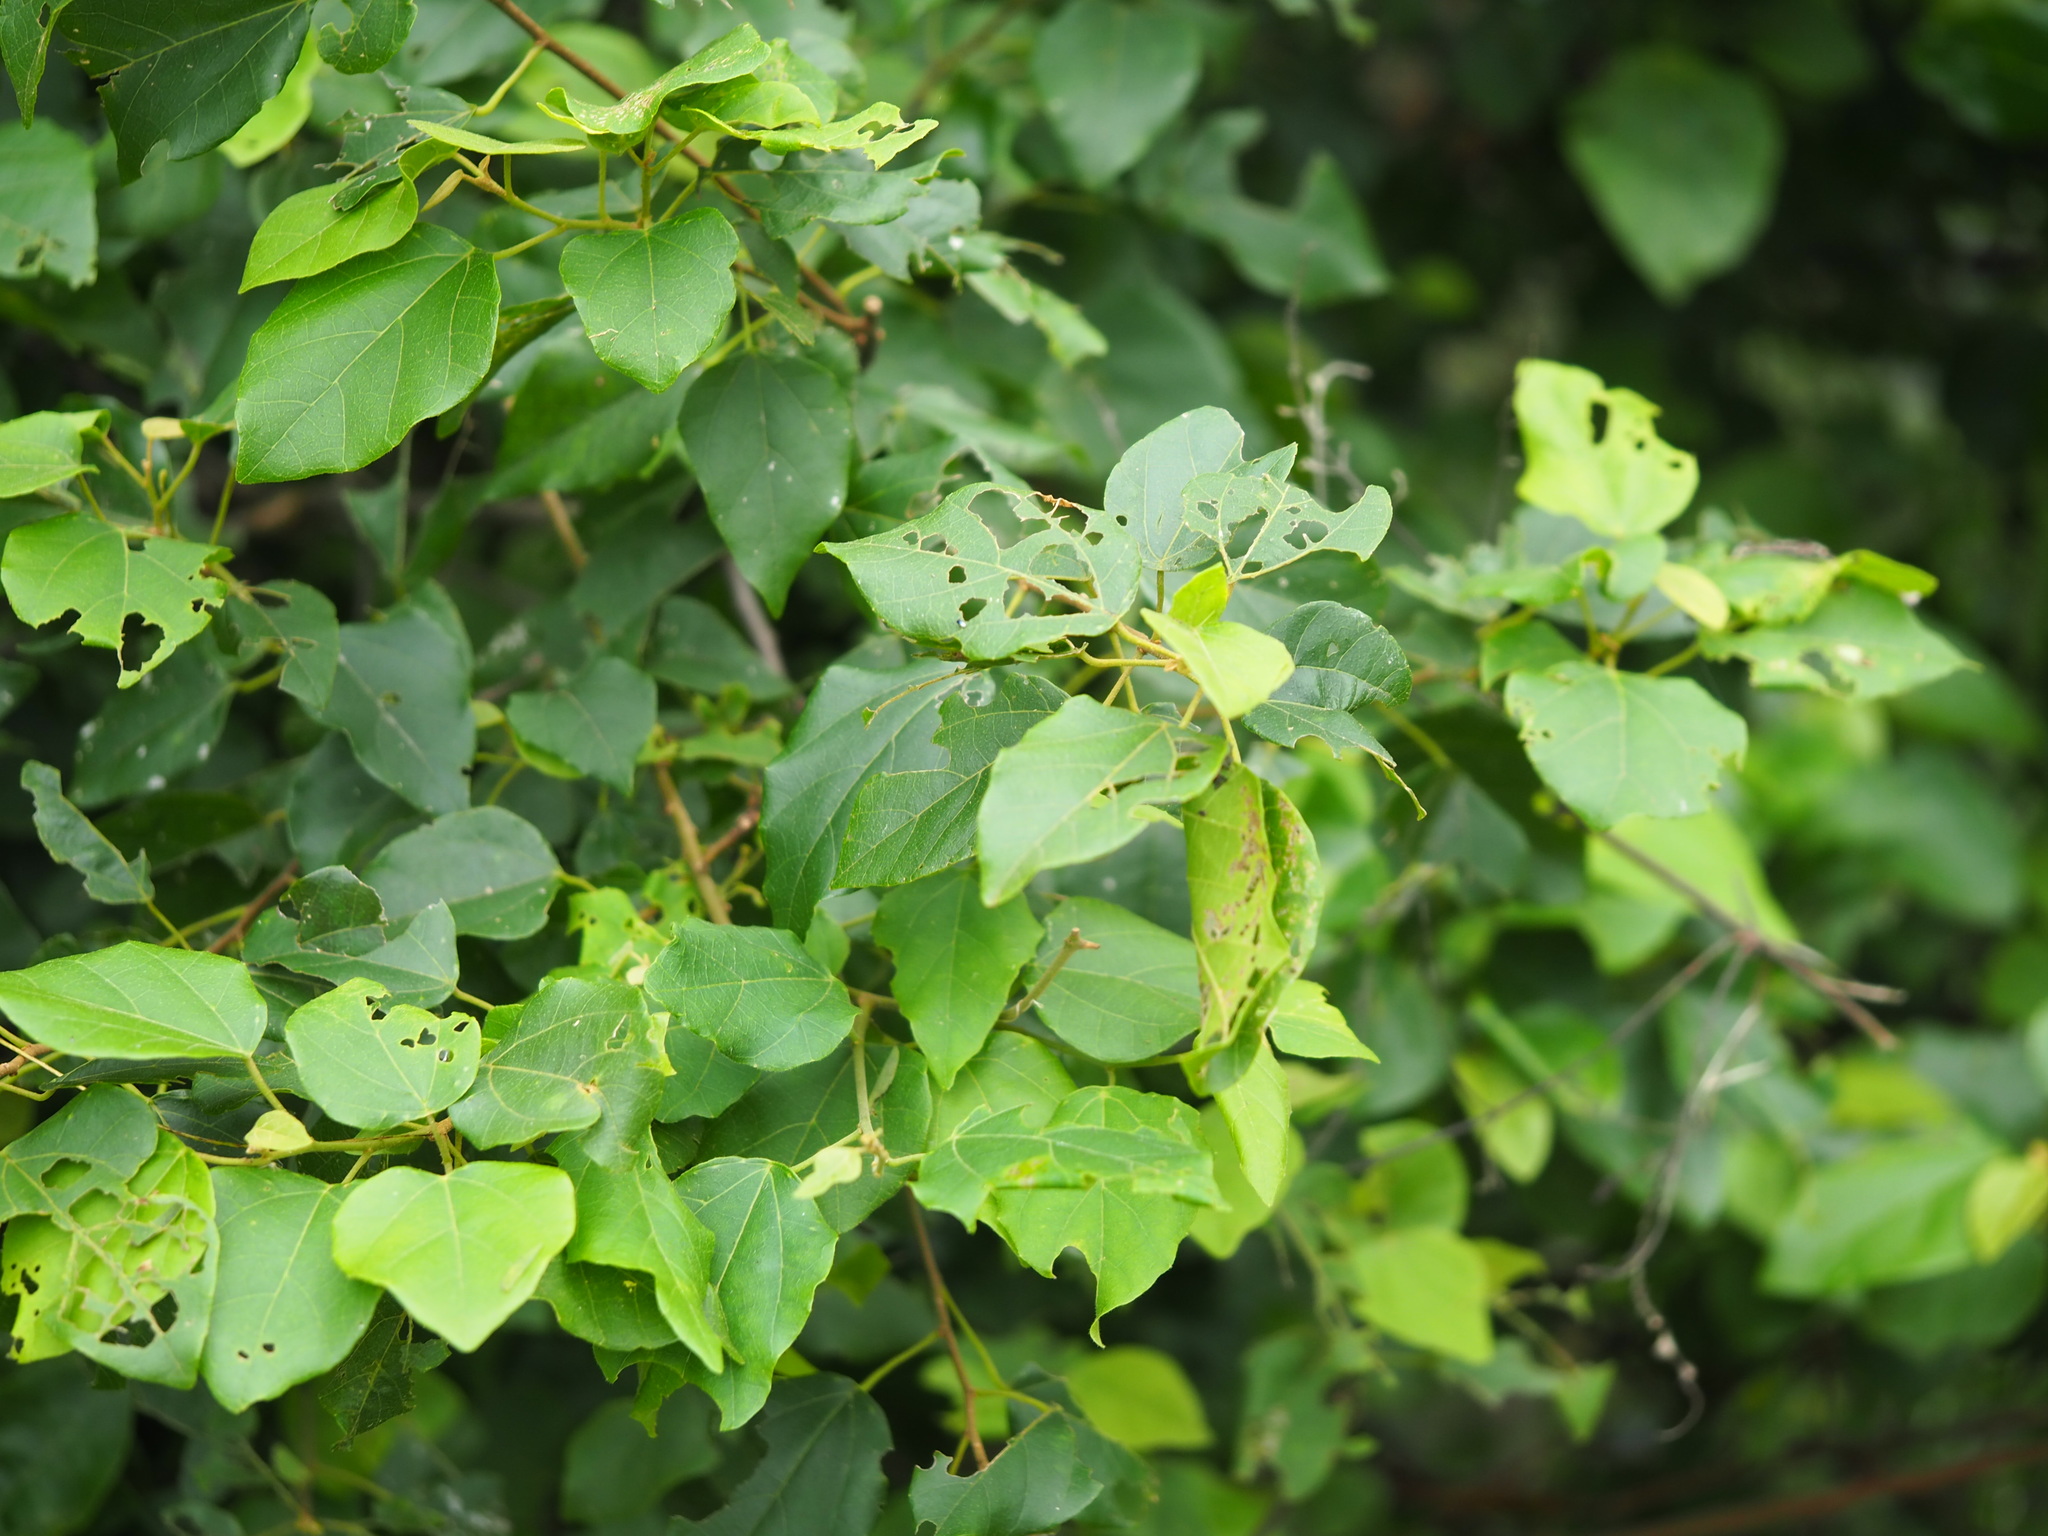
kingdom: Plantae
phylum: Tracheophyta
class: Magnoliopsida
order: Malpighiales
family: Euphorbiaceae
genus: Mallotus
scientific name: Mallotus repandus
